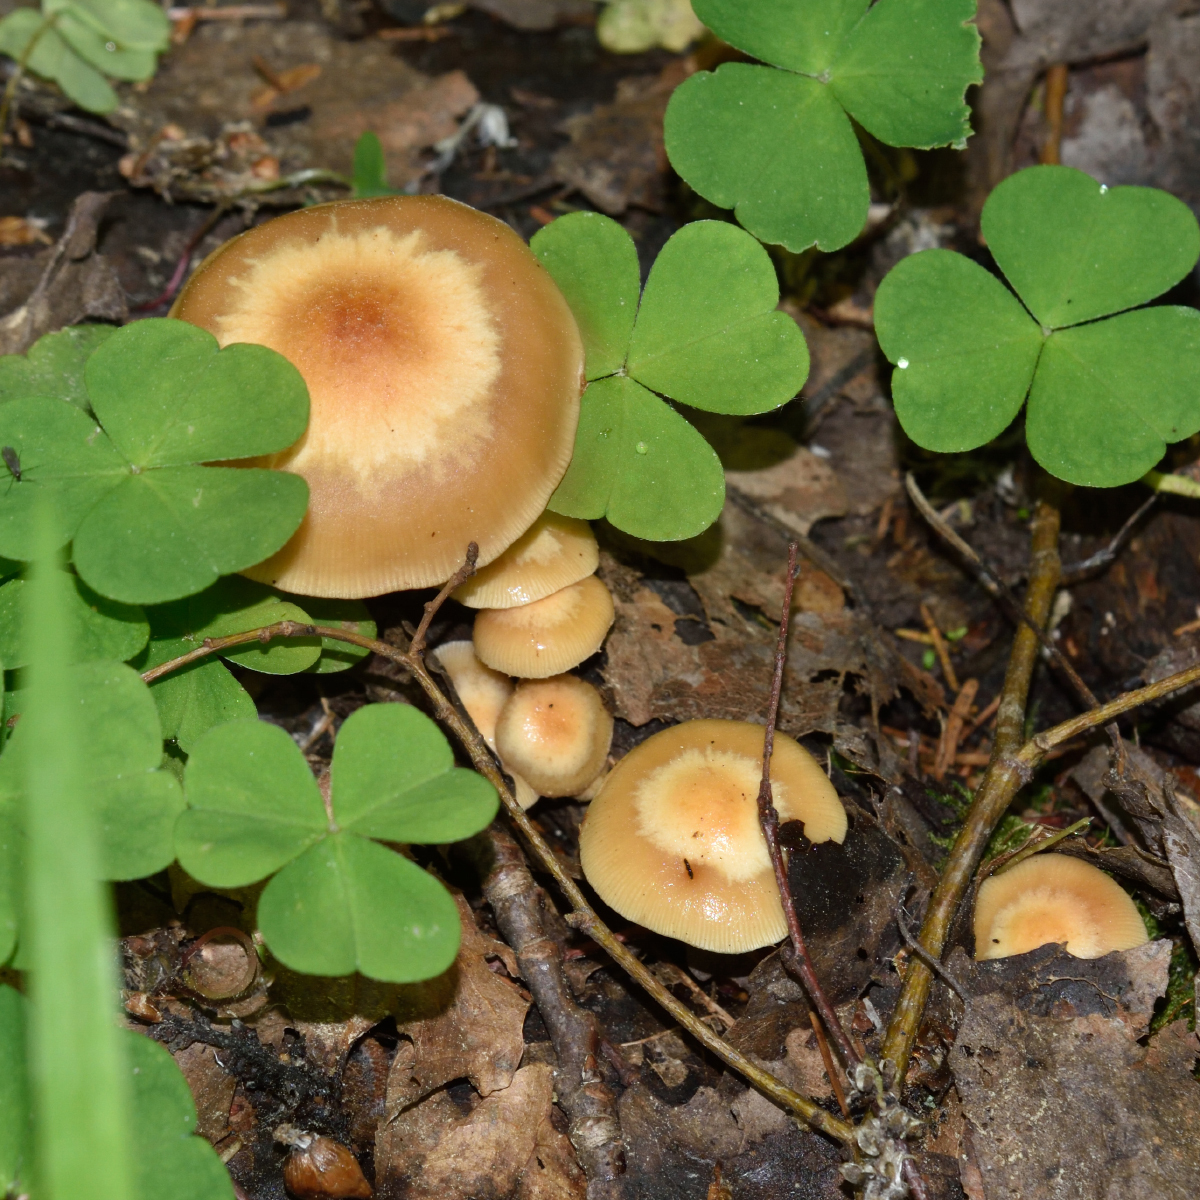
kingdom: Fungi
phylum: Basidiomycota
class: Agaricomycetes
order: Agaricales
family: Strophariaceae
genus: Kuehneromyces
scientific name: Kuehneromyces mutabilis
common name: Sheathed woodtuft
